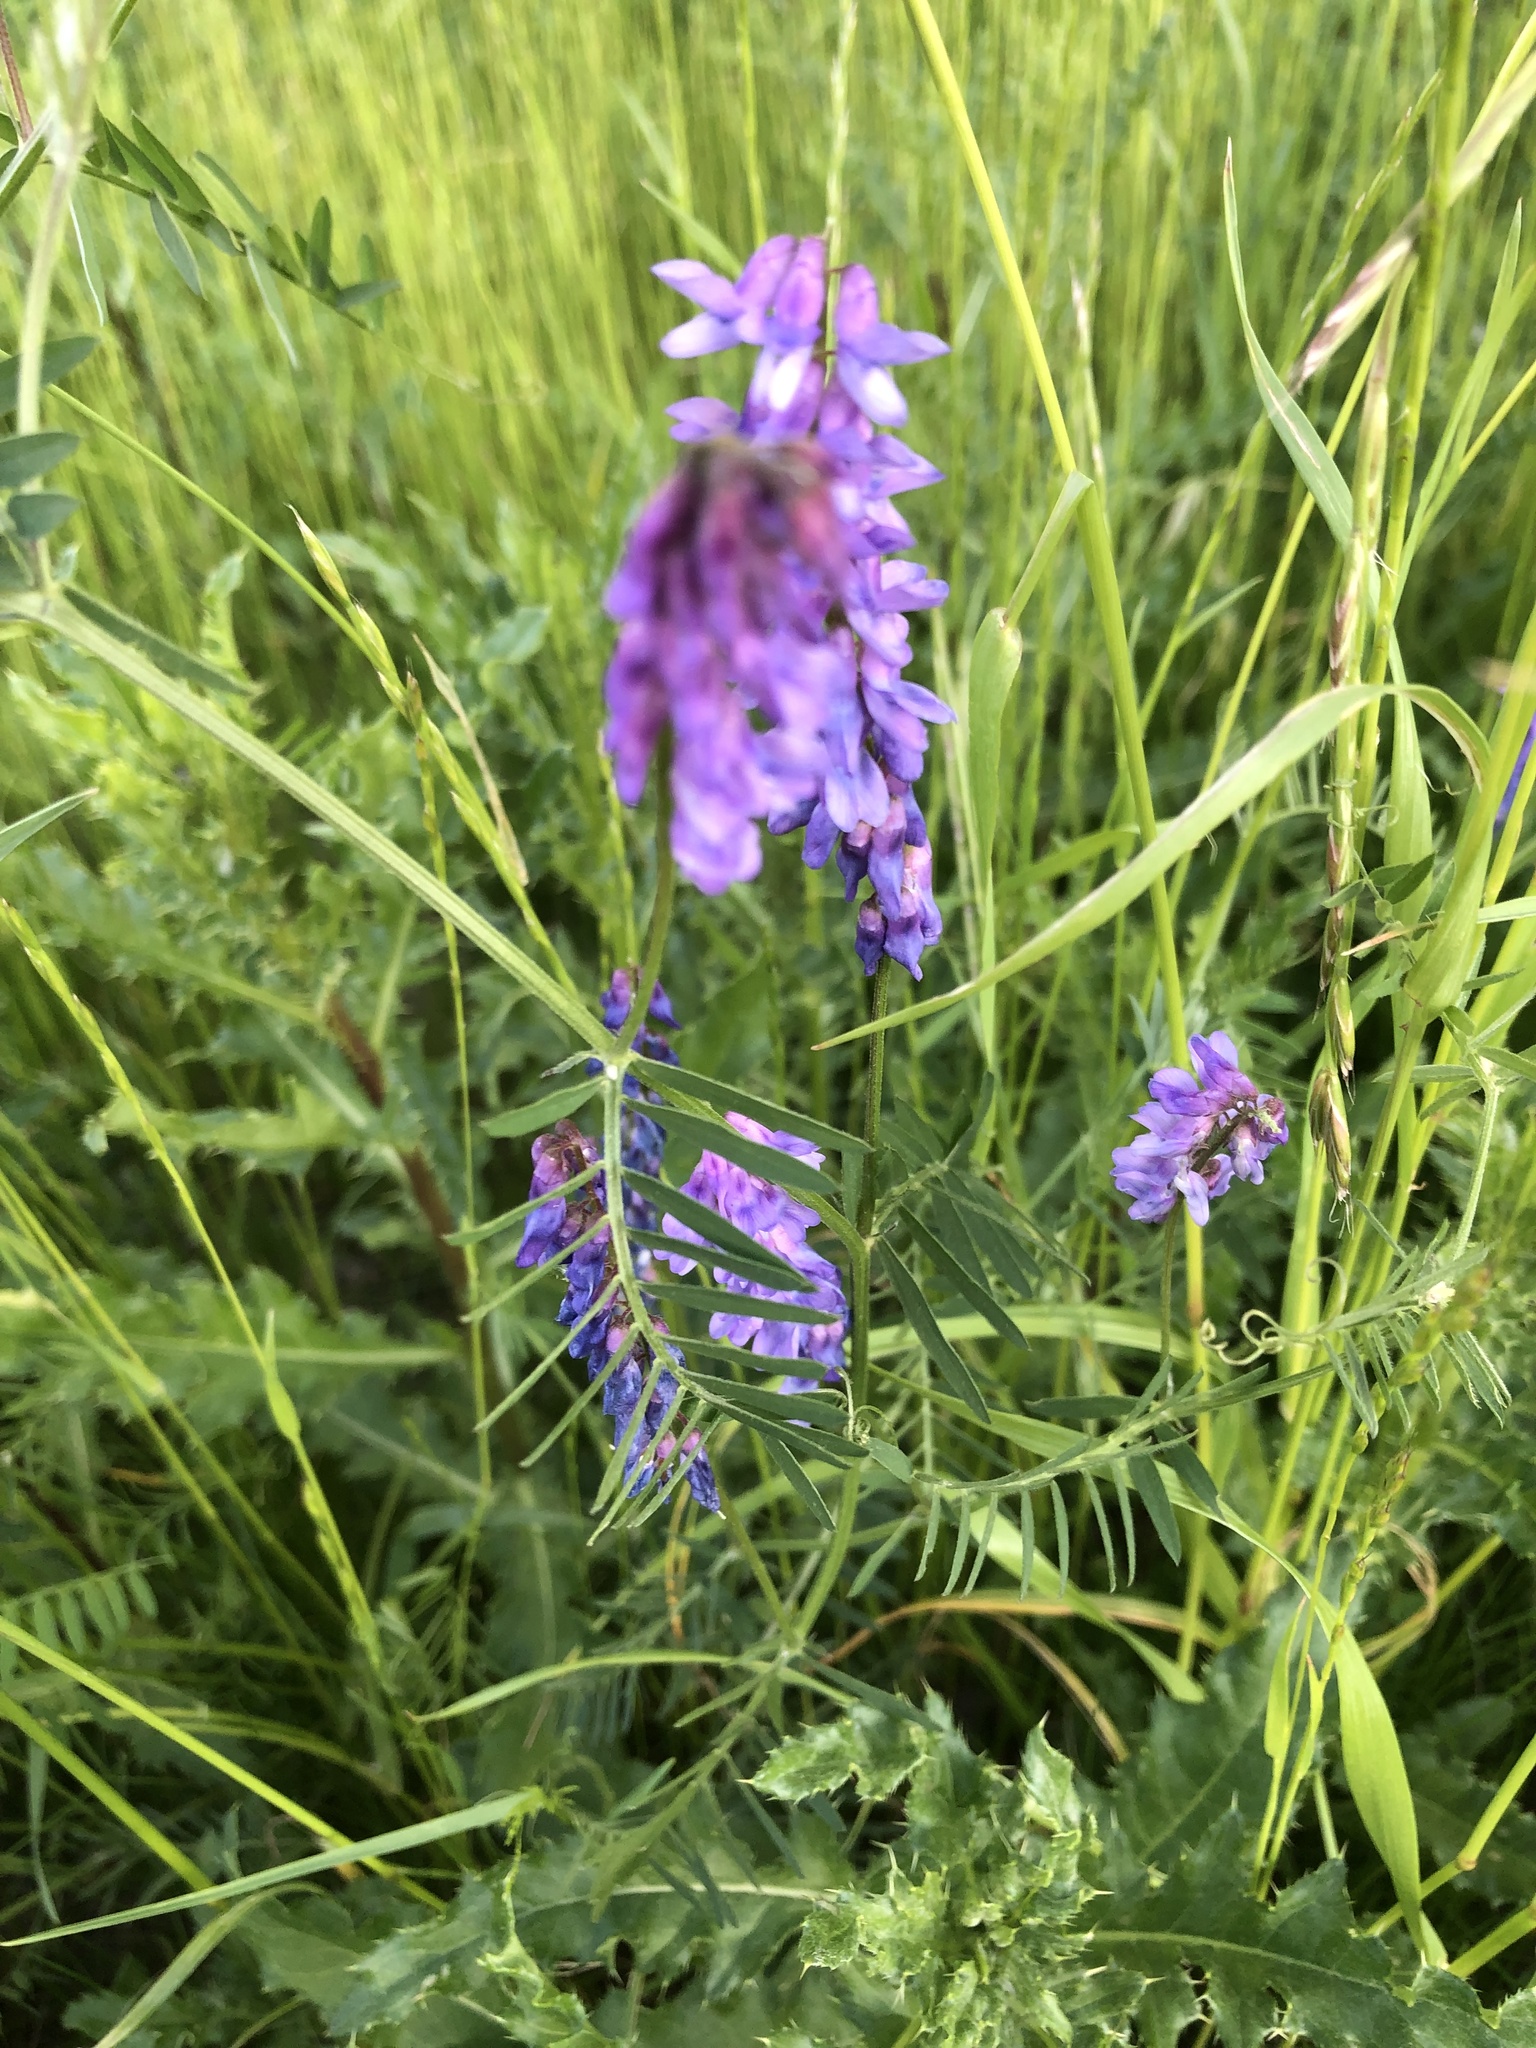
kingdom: Plantae
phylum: Tracheophyta
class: Magnoliopsida
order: Fabales
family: Fabaceae
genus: Vicia
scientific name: Vicia cracca
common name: Bird vetch
